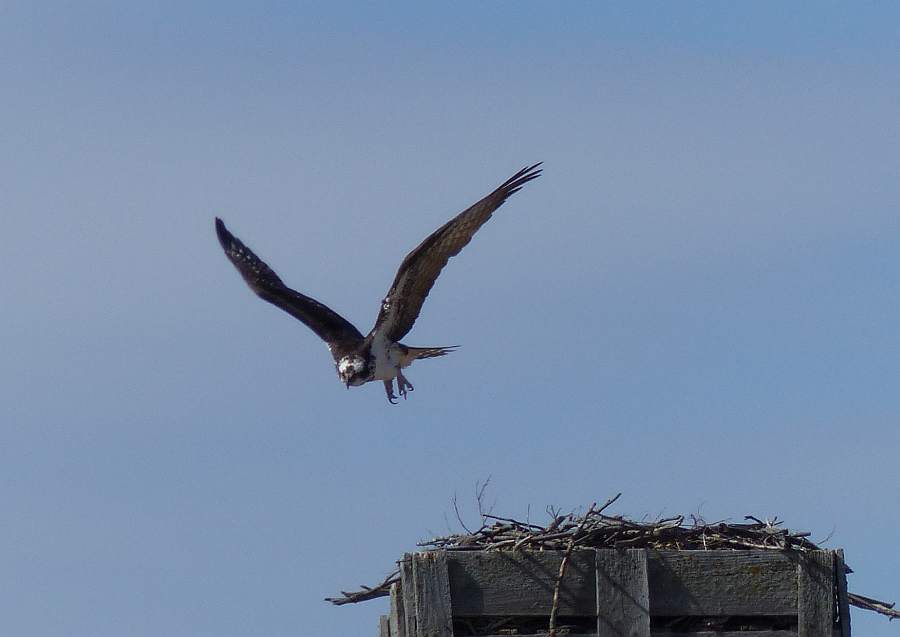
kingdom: Animalia
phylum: Chordata
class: Aves
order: Accipitriformes
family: Pandionidae
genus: Pandion
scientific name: Pandion haliaetus
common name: Osprey
